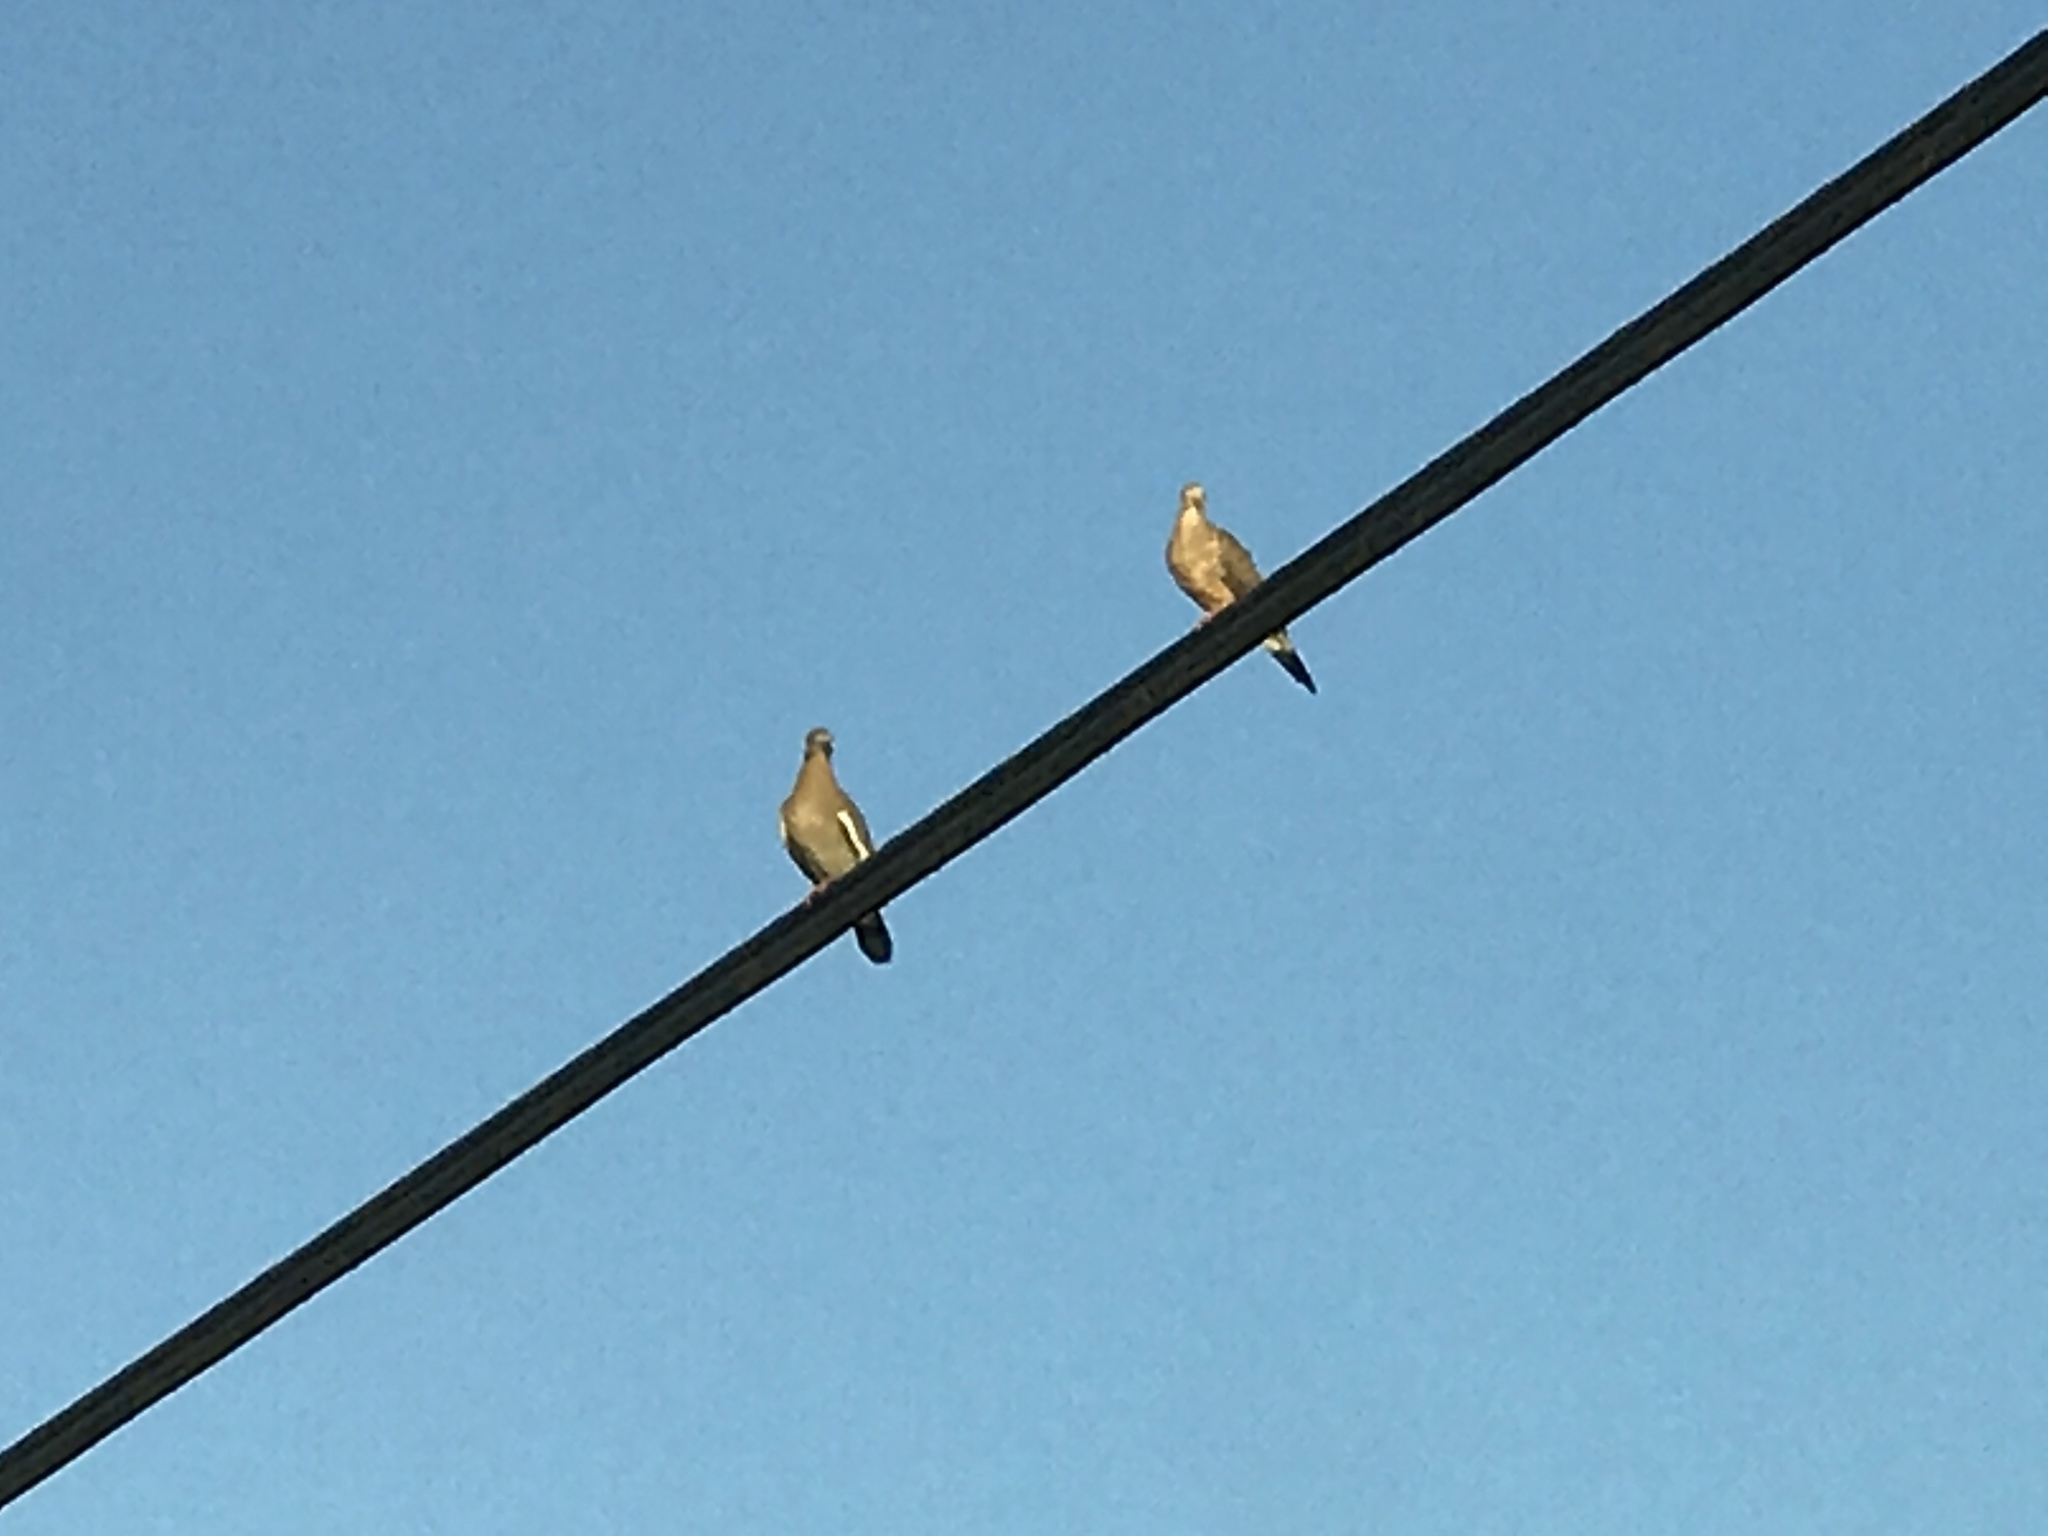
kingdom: Animalia
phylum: Chordata
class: Aves
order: Columbiformes
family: Columbidae
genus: Zenaida
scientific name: Zenaida macroura
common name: Mourning dove
